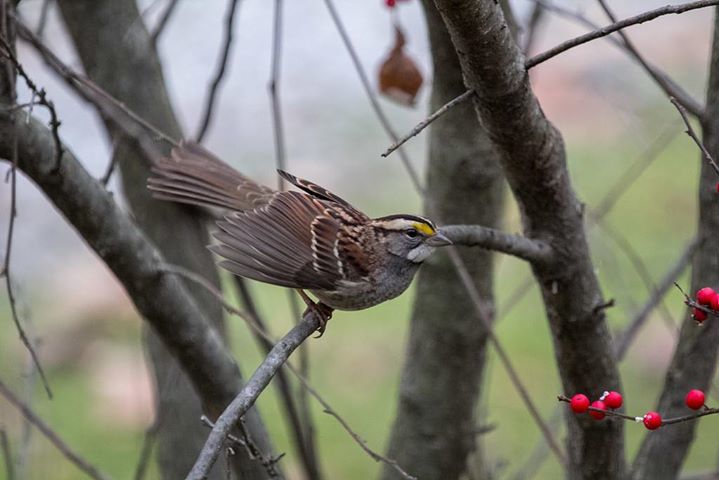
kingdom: Animalia
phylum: Chordata
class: Aves
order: Passeriformes
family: Passerellidae
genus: Zonotrichia
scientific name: Zonotrichia albicollis
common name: White-throated sparrow
